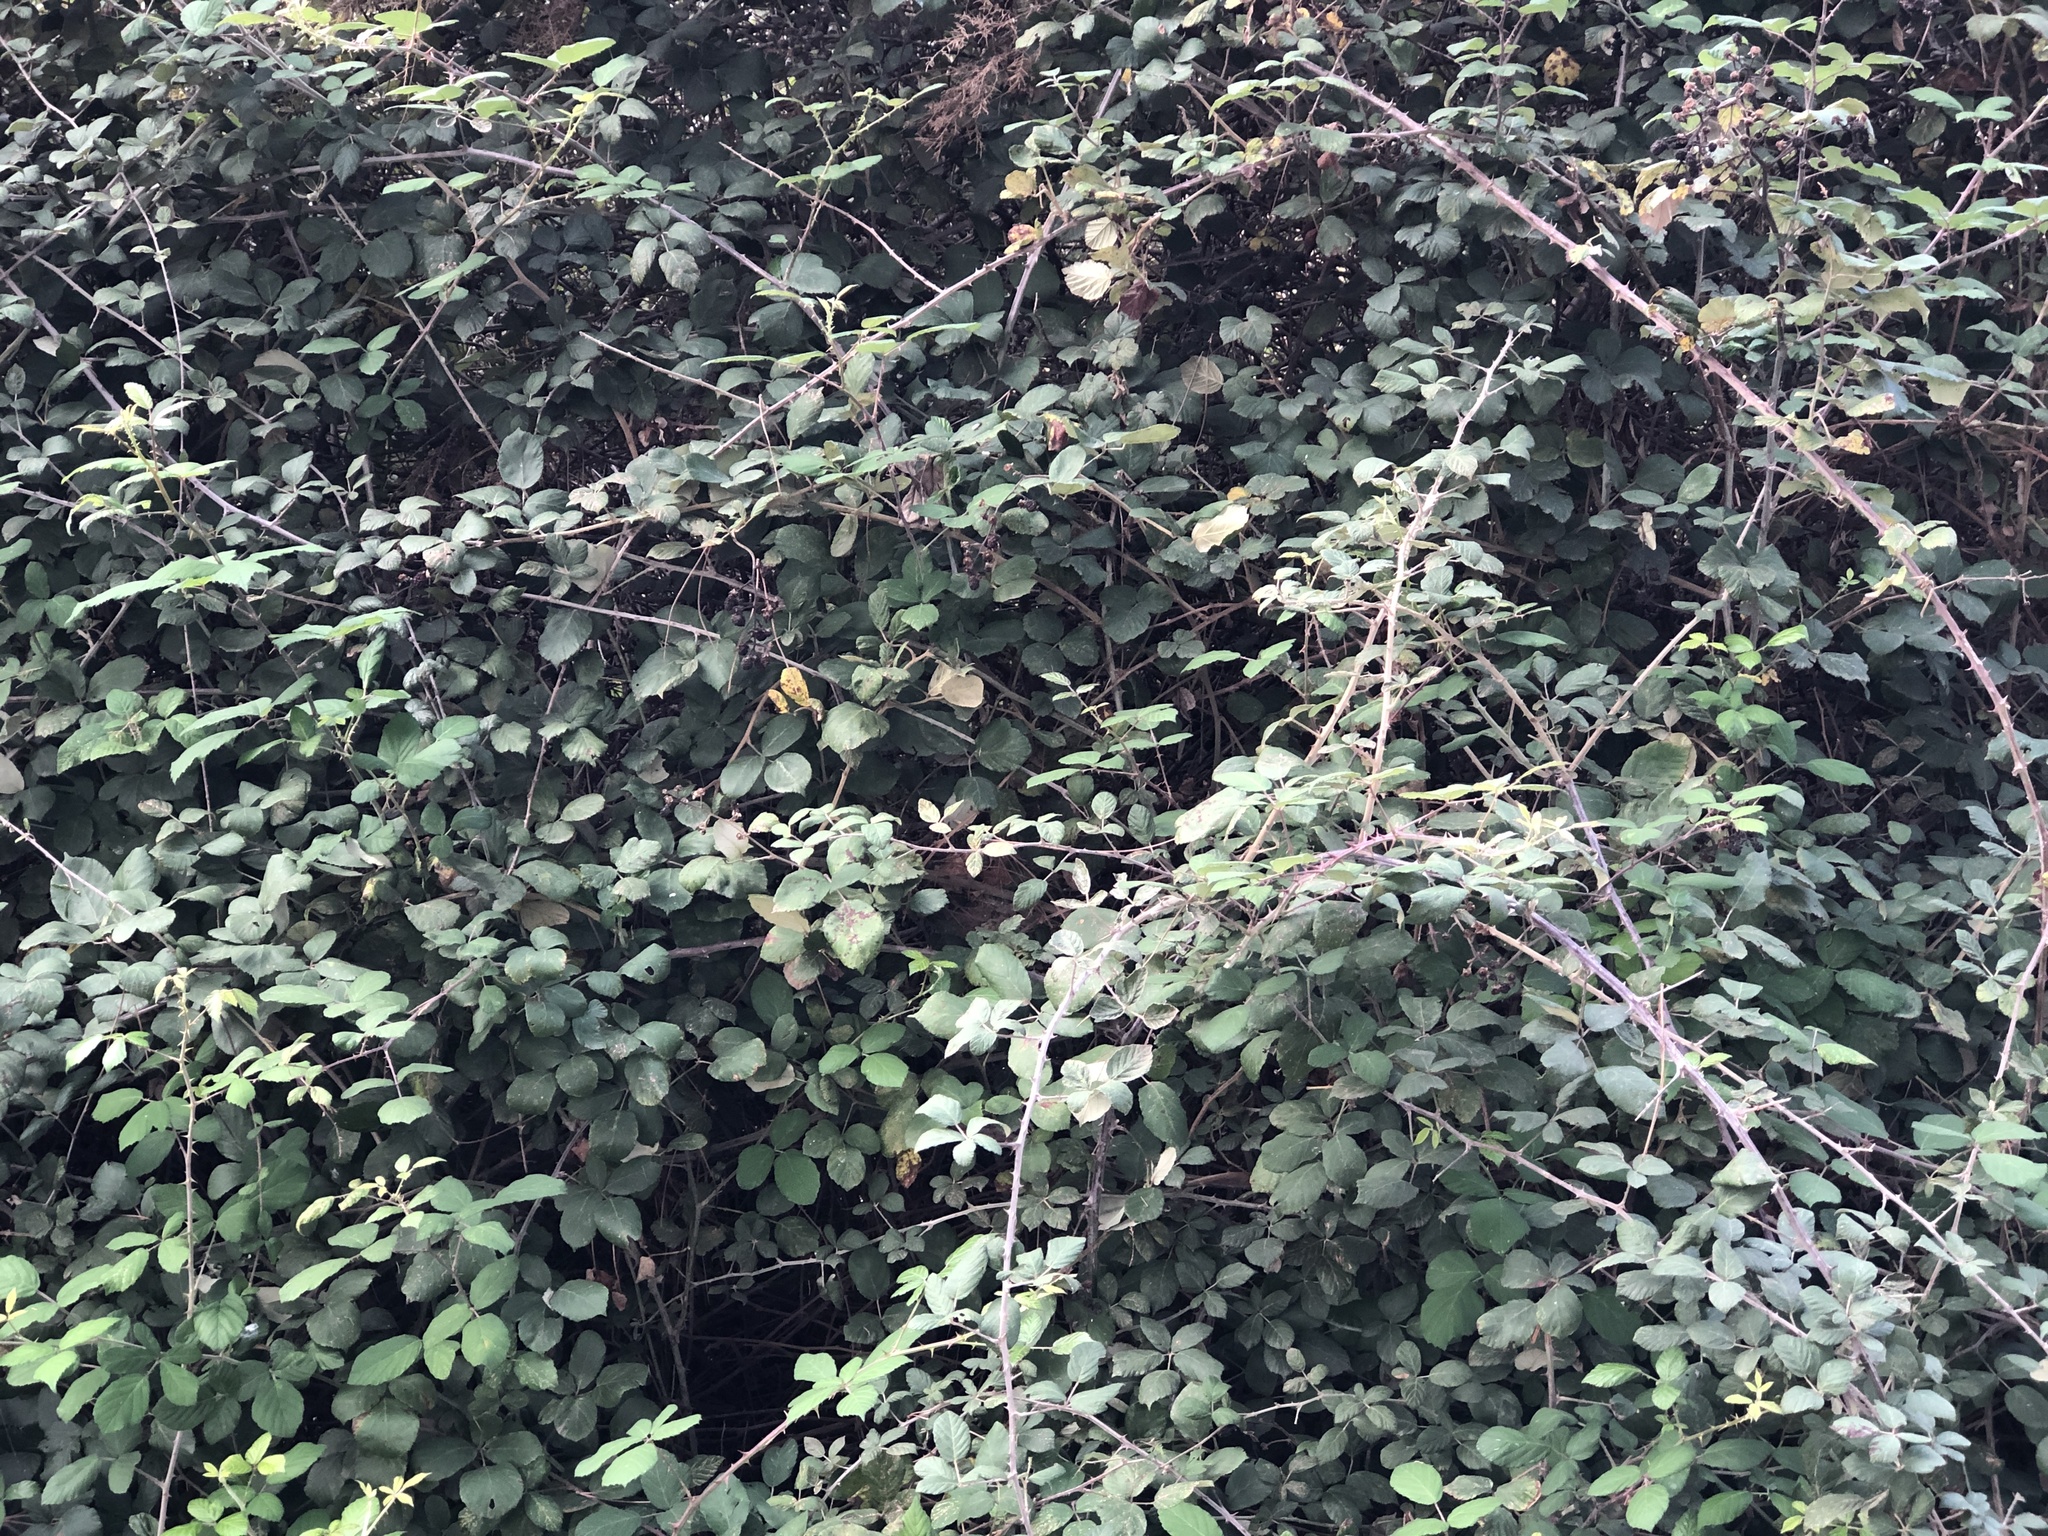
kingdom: Plantae
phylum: Tracheophyta
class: Magnoliopsida
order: Rosales
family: Rosaceae
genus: Rubus
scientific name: Rubus ulmifolius
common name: Elmleaf blackberry
